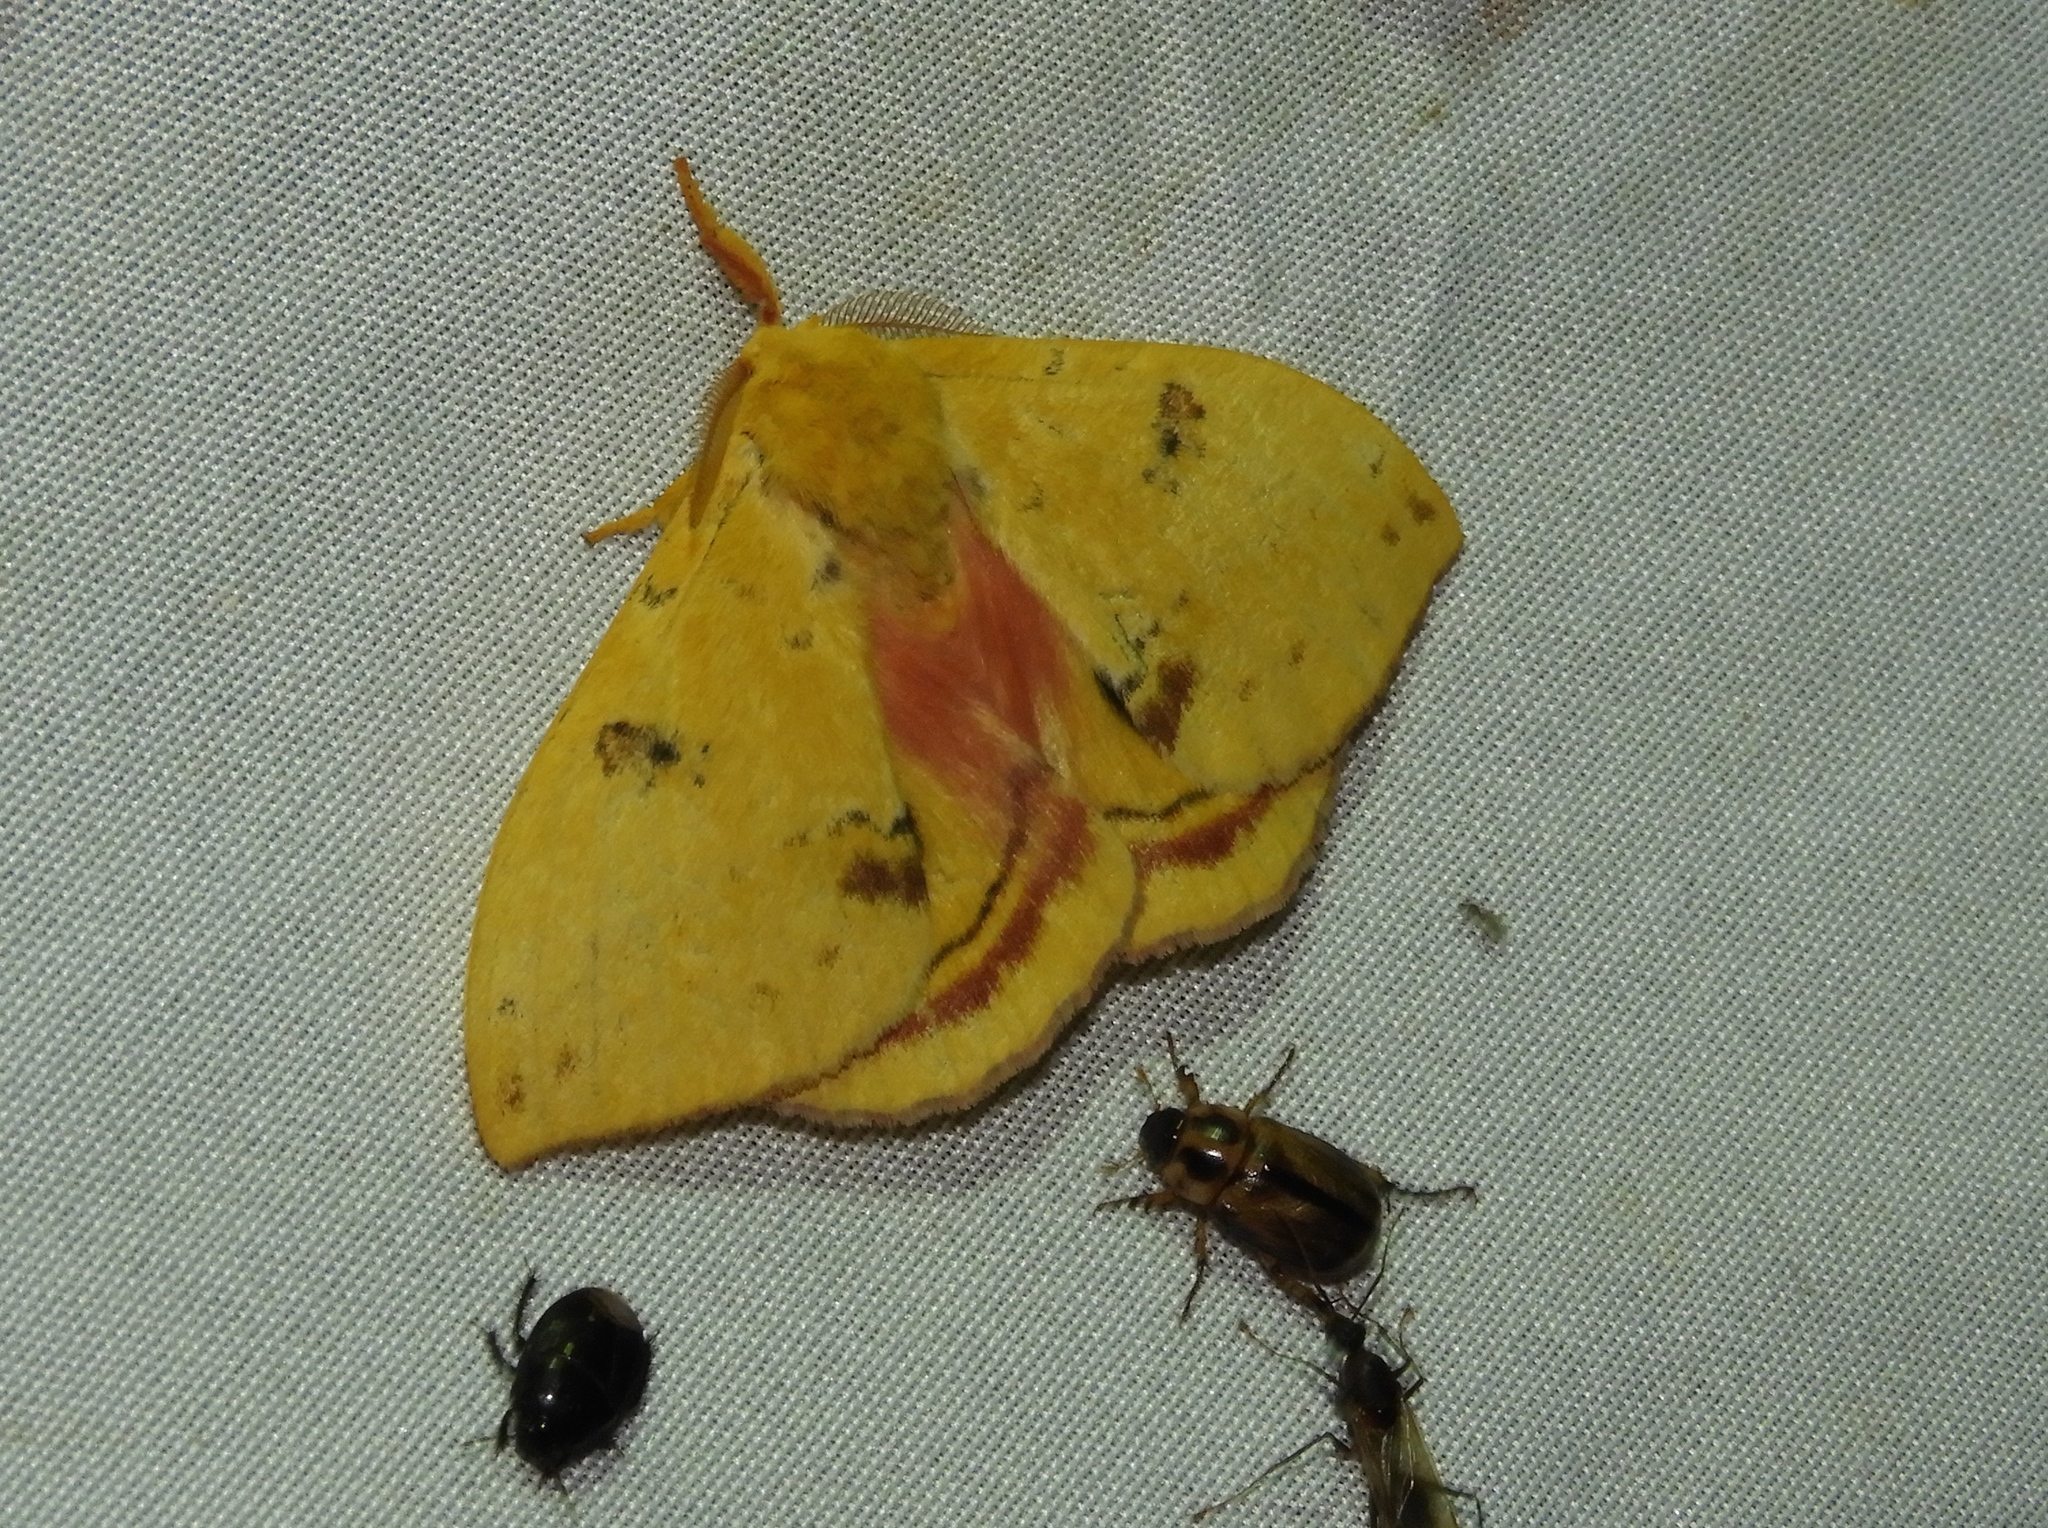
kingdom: Animalia
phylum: Arthropoda
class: Insecta
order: Lepidoptera
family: Saturniidae
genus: Automeris
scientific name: Automeris io
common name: Io moth
